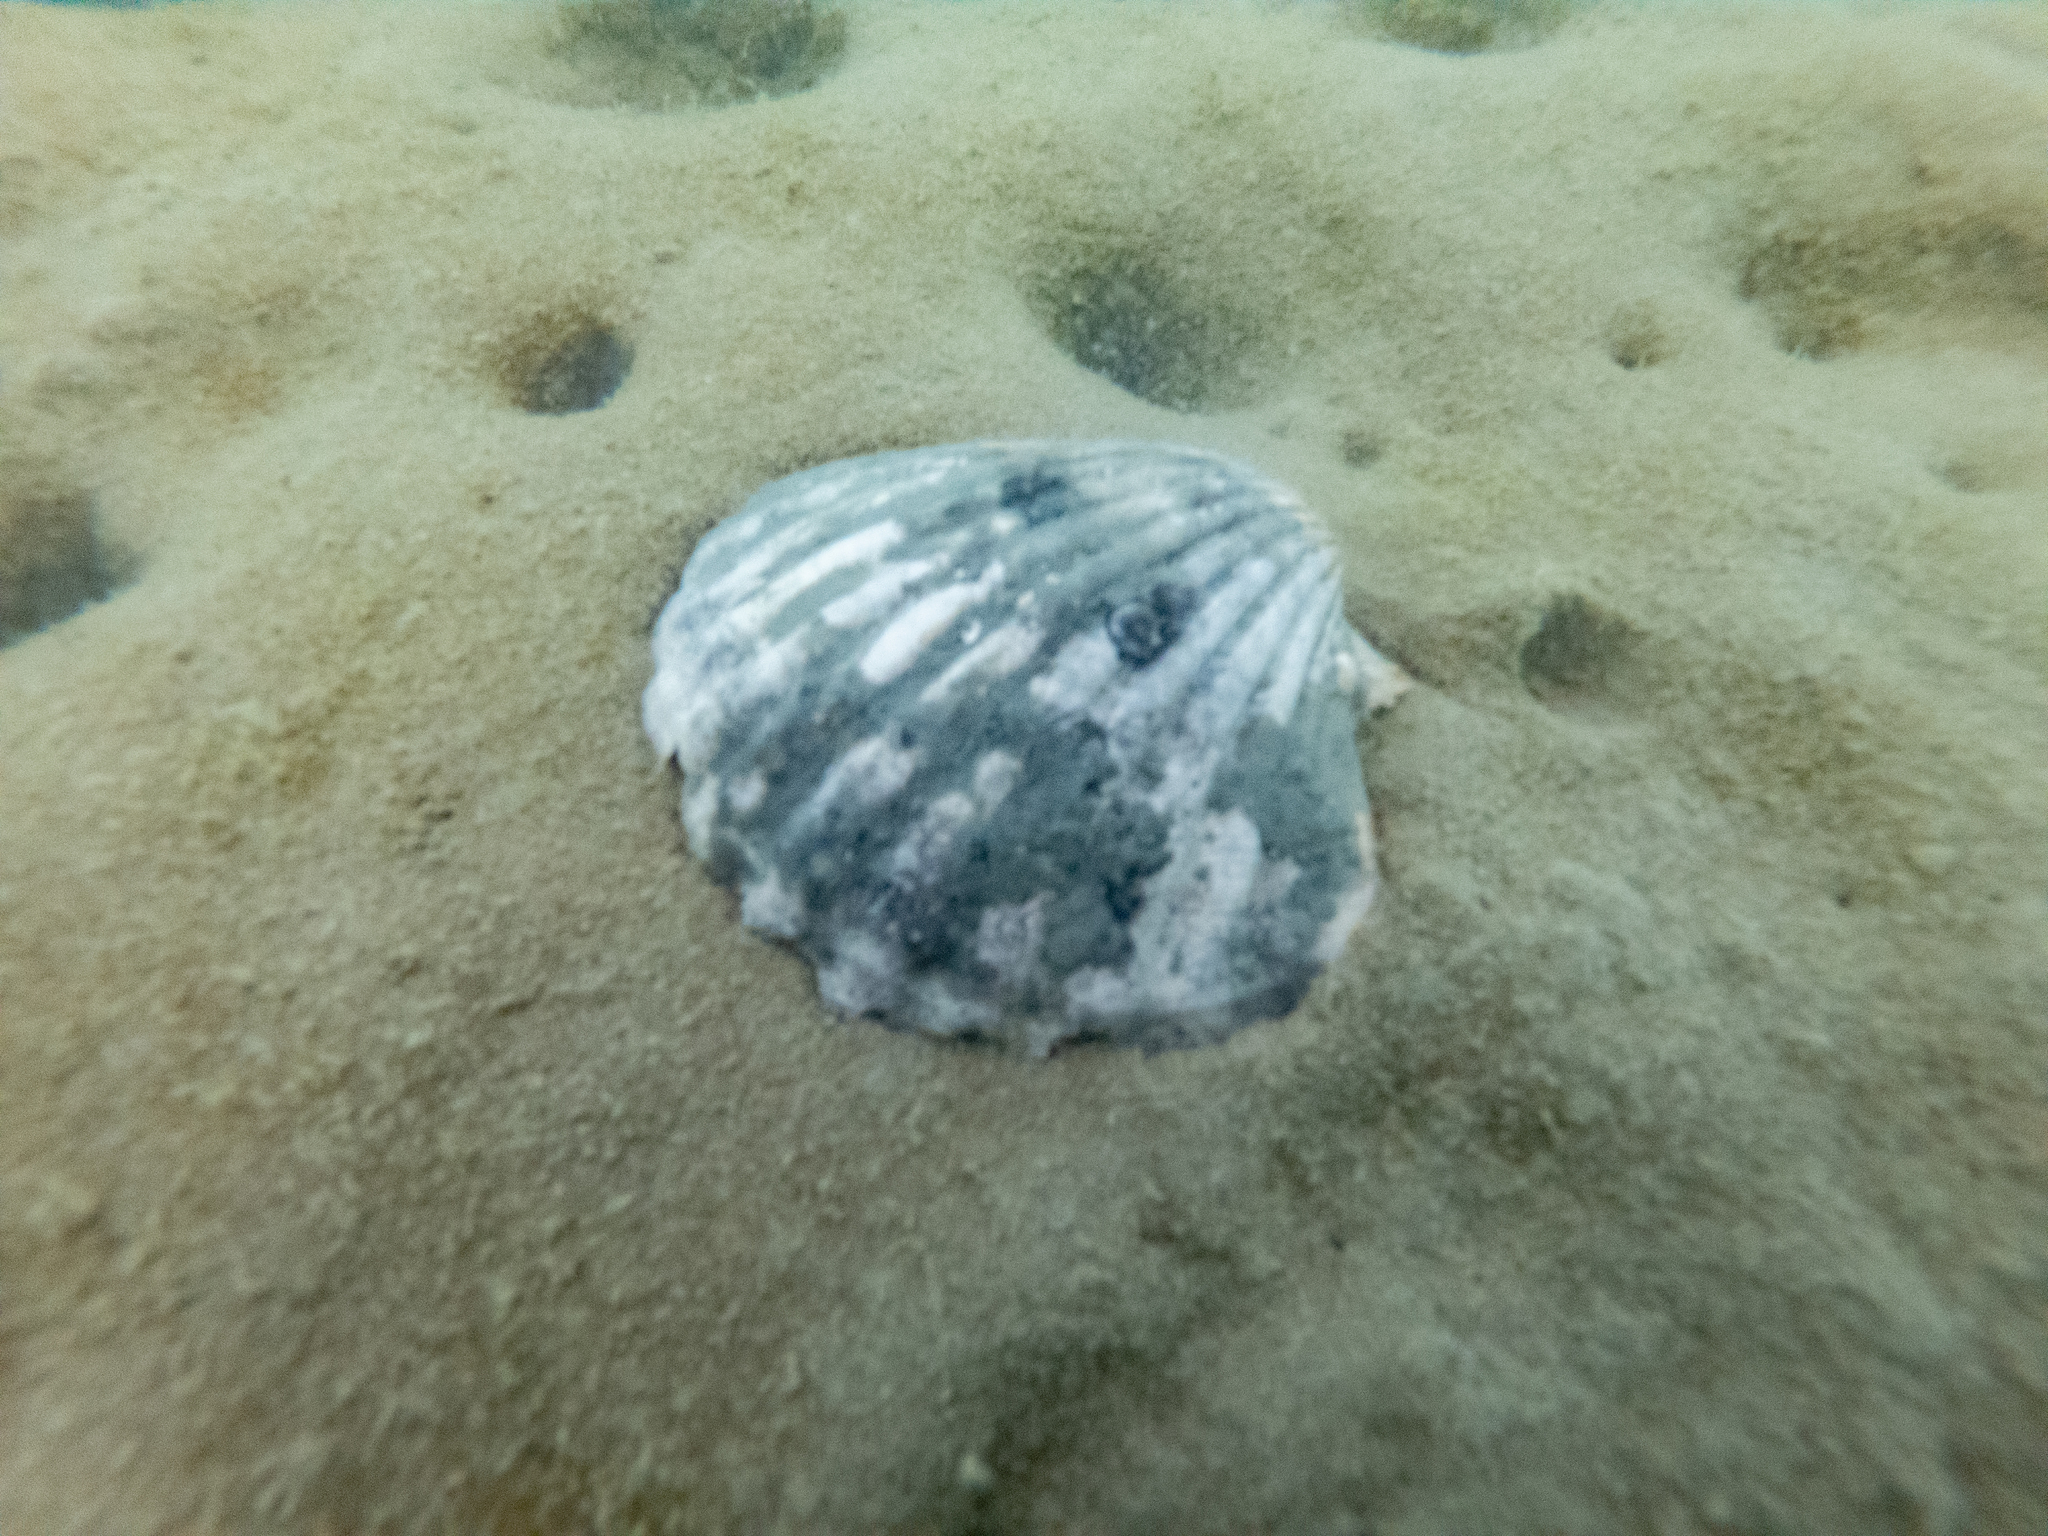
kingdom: Animalia
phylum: Mollusca
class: Bivalvia
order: Pectinida
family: Pectinidae
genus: Pecten
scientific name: Pecten novaezelandiae
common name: New zealand scallop
